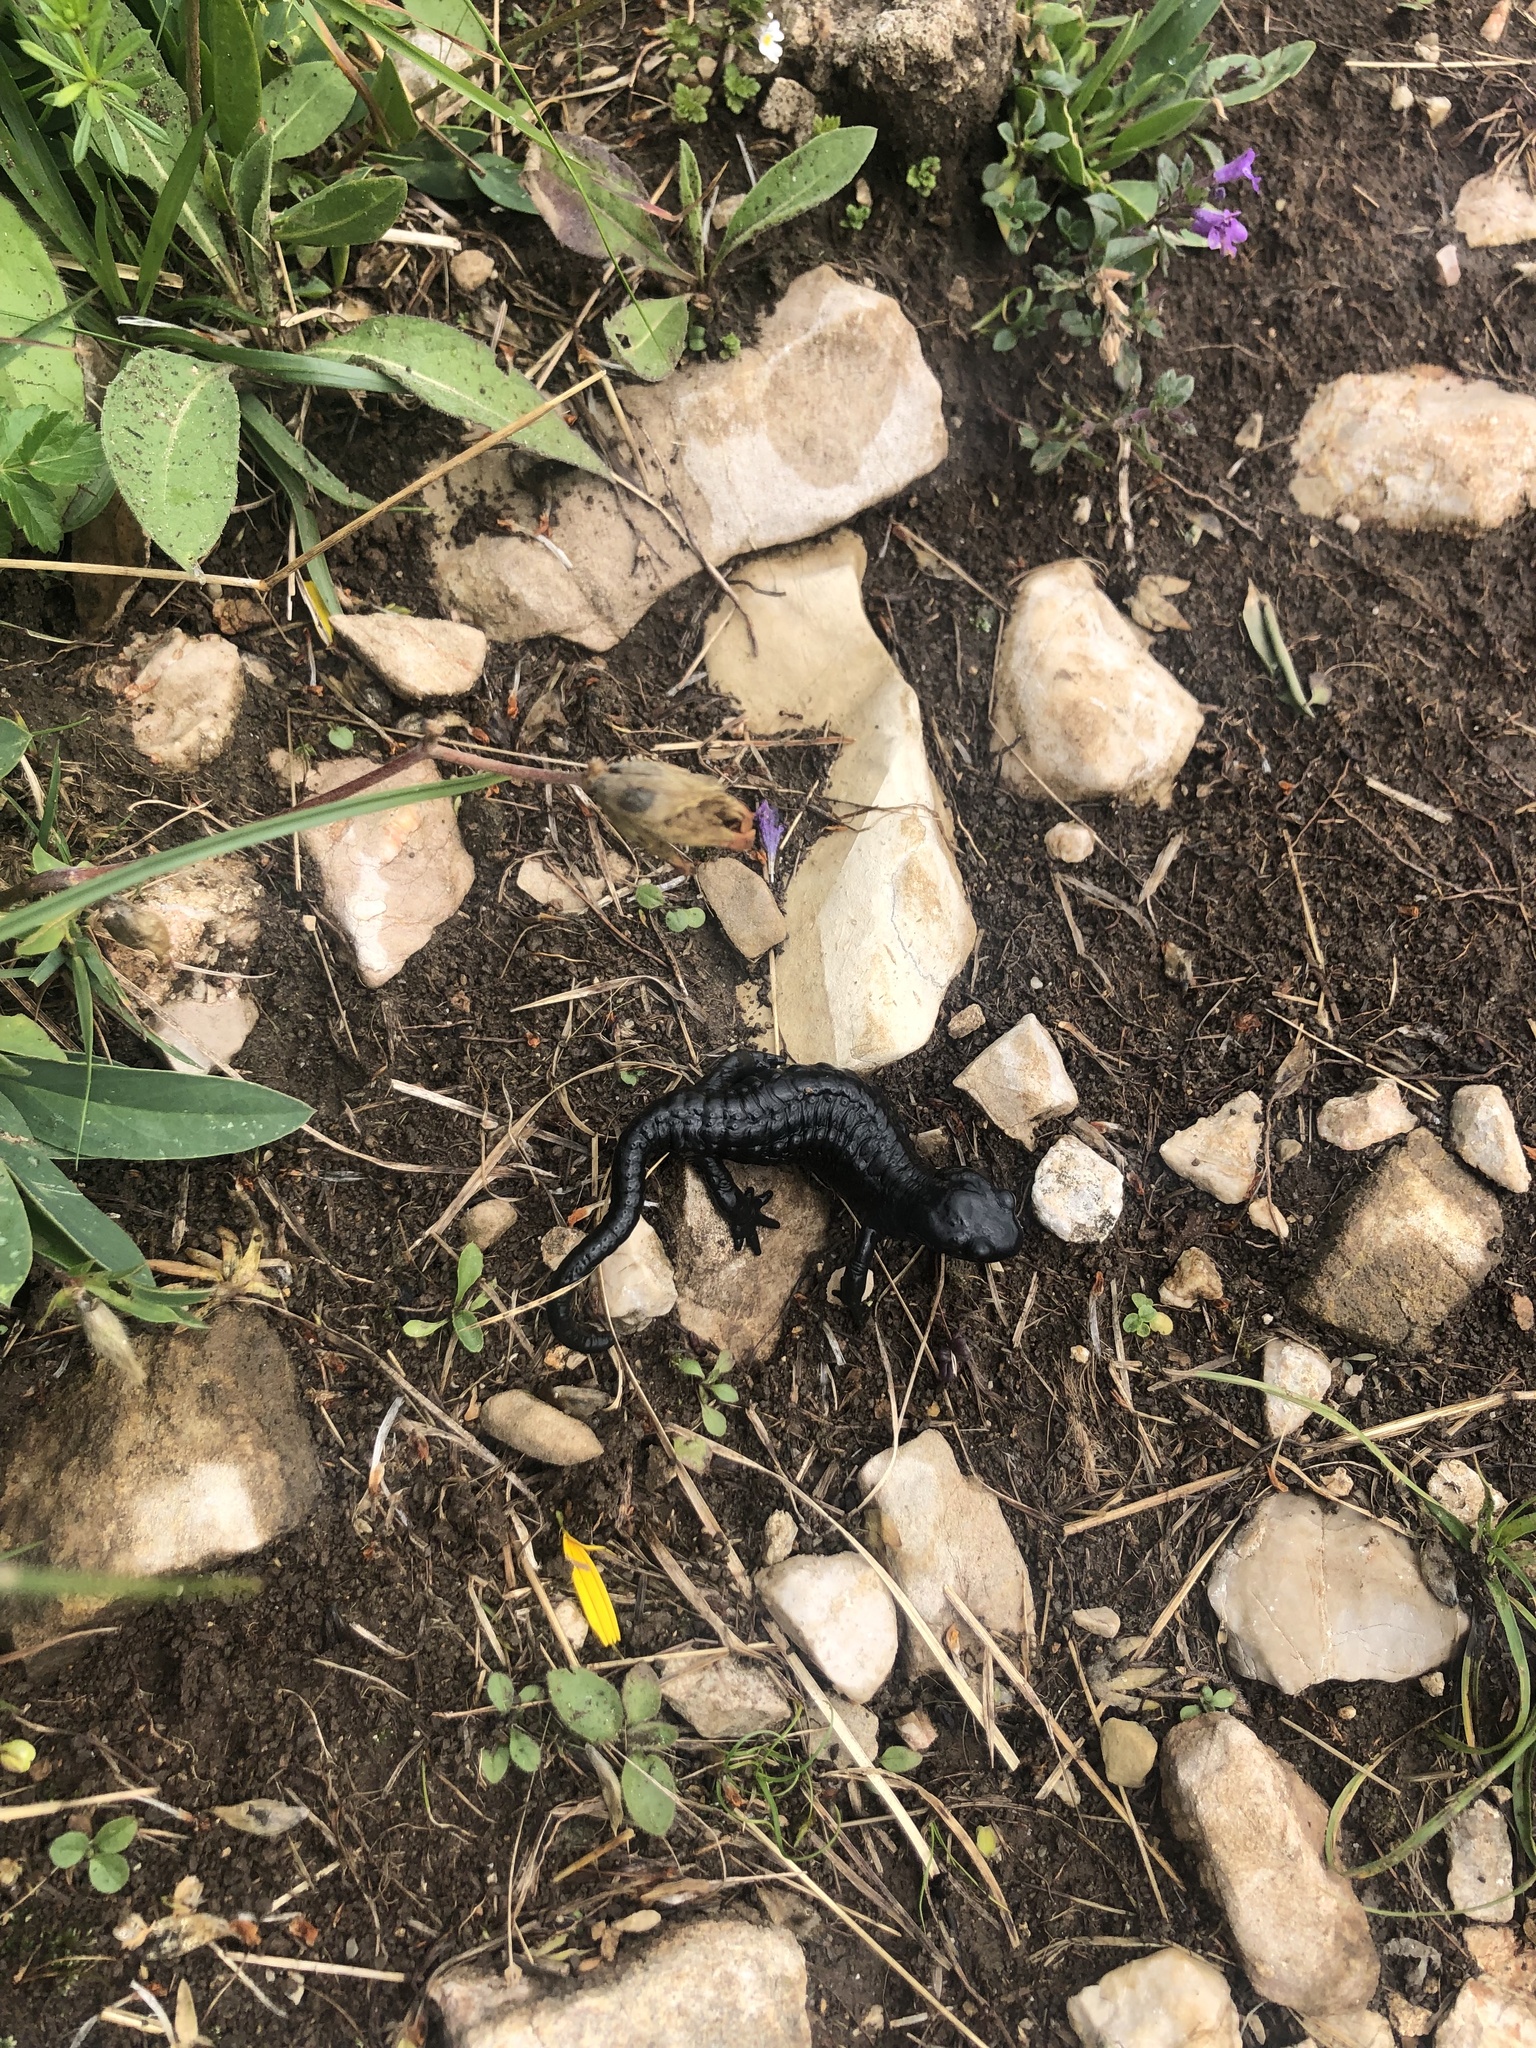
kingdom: Animalia
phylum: Chordata
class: Amphibia
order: Caudata
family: Salamandridae
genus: Salamandra
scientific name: Salamandra atra
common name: Alpine salamander
